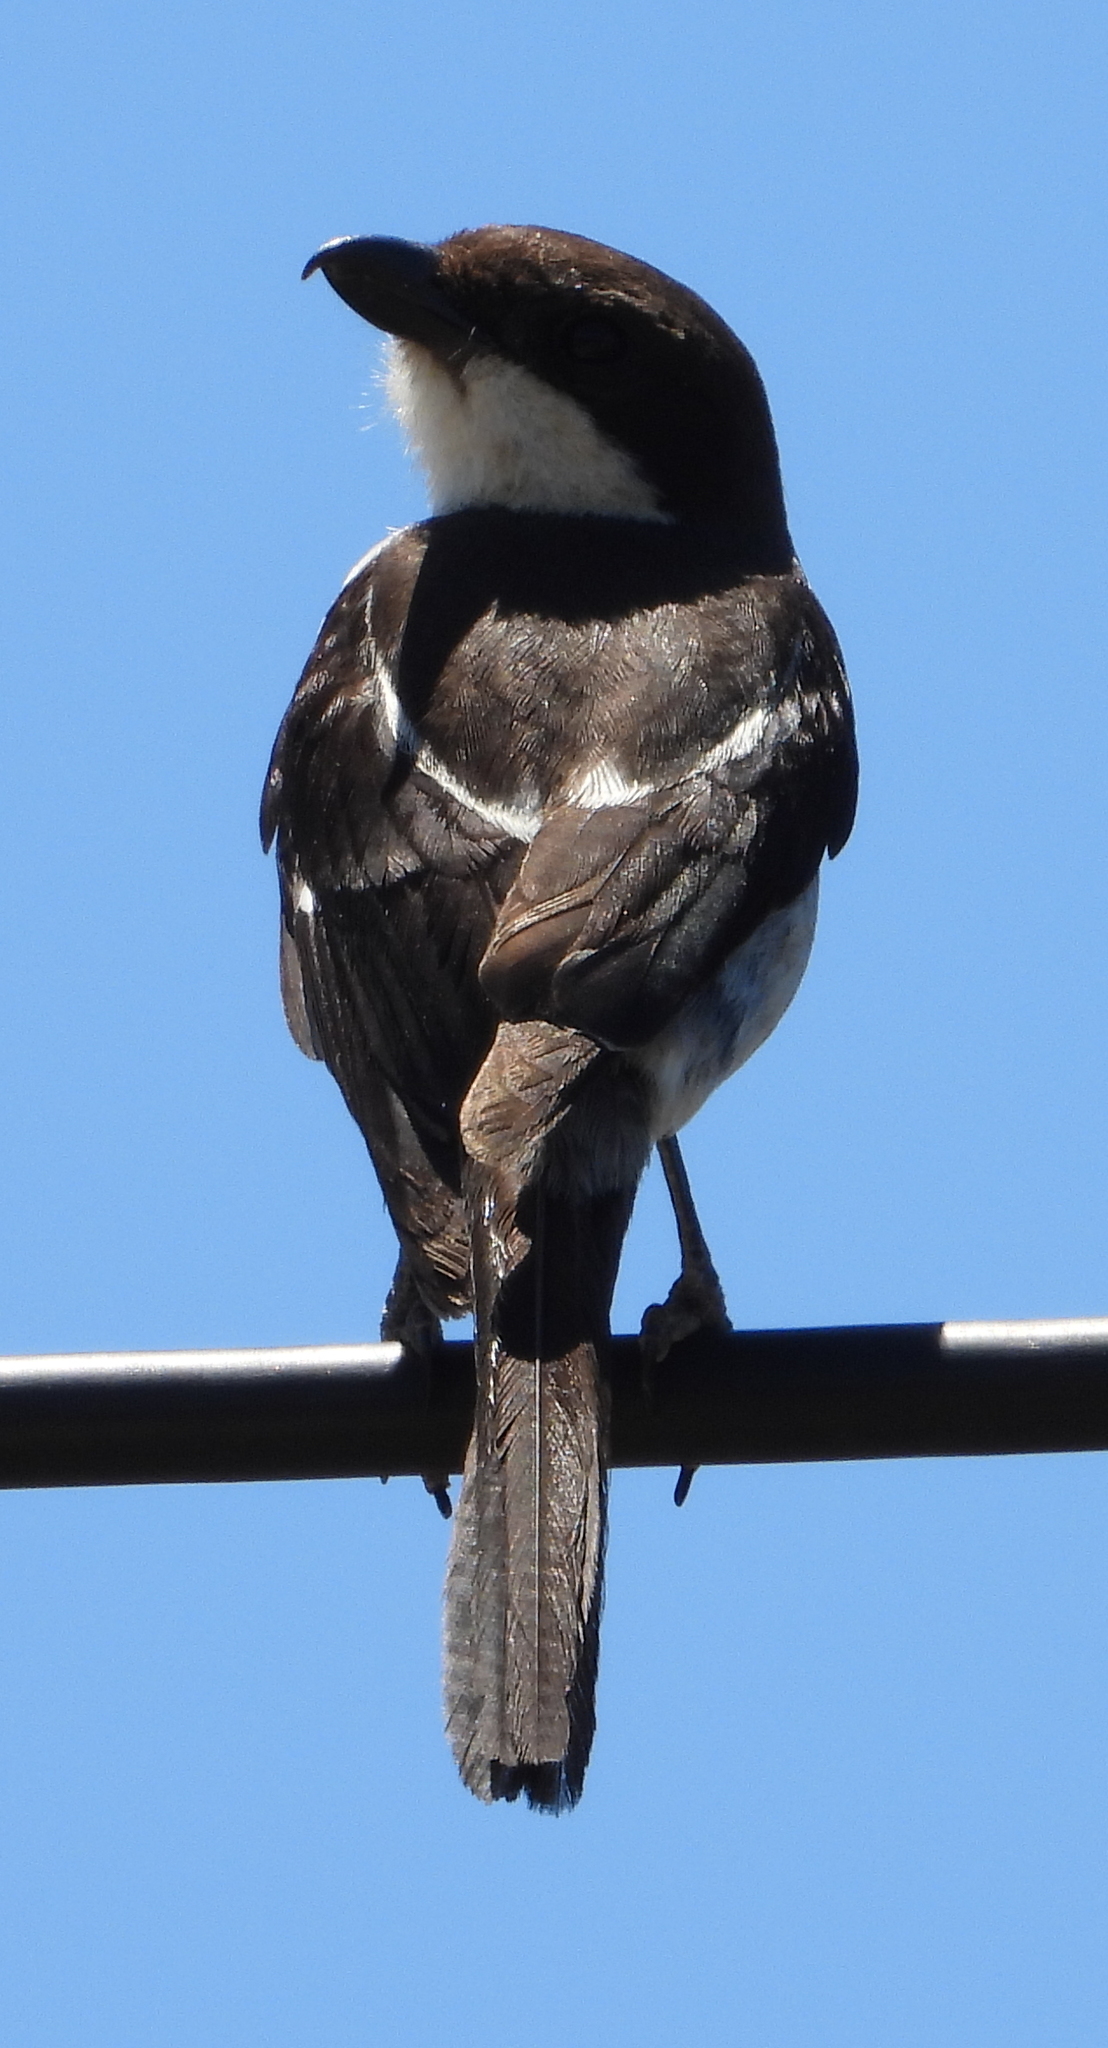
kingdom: Animalia
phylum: Chordata
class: Aves
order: Passeriformes
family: Laniidae
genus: Lanius
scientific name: Lanius collaris
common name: Southern fiscal
